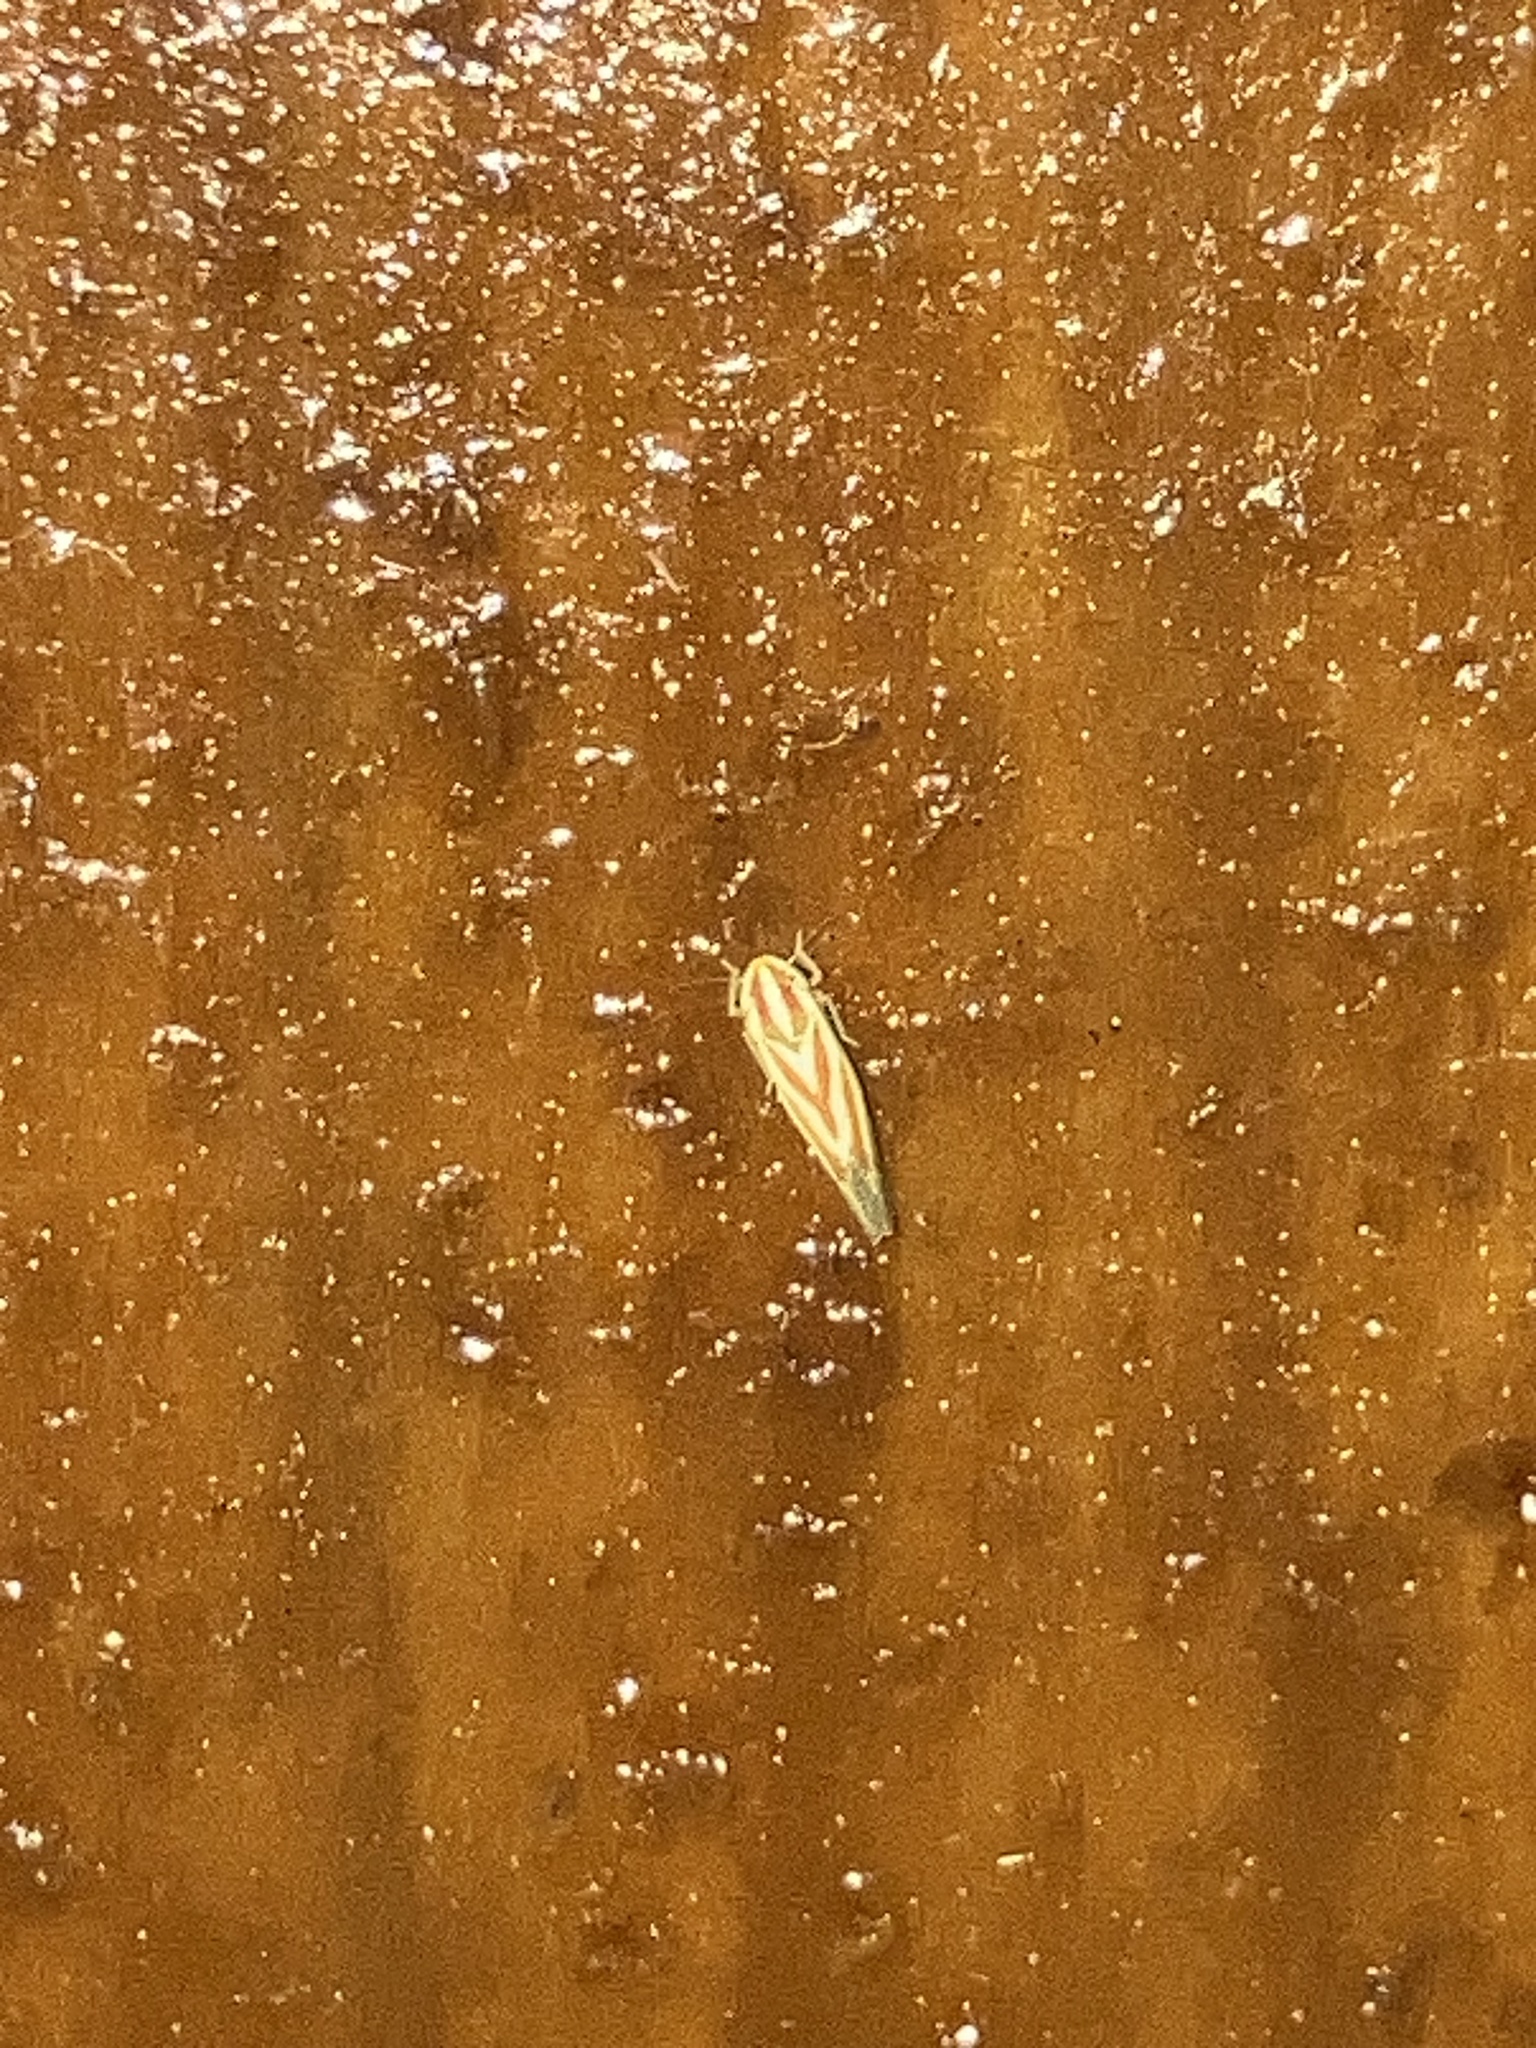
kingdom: Animalia
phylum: Arthropoda
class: Insecta
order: Hemiptera
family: Cicadellidae
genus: Erythridula
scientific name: Erythridula
